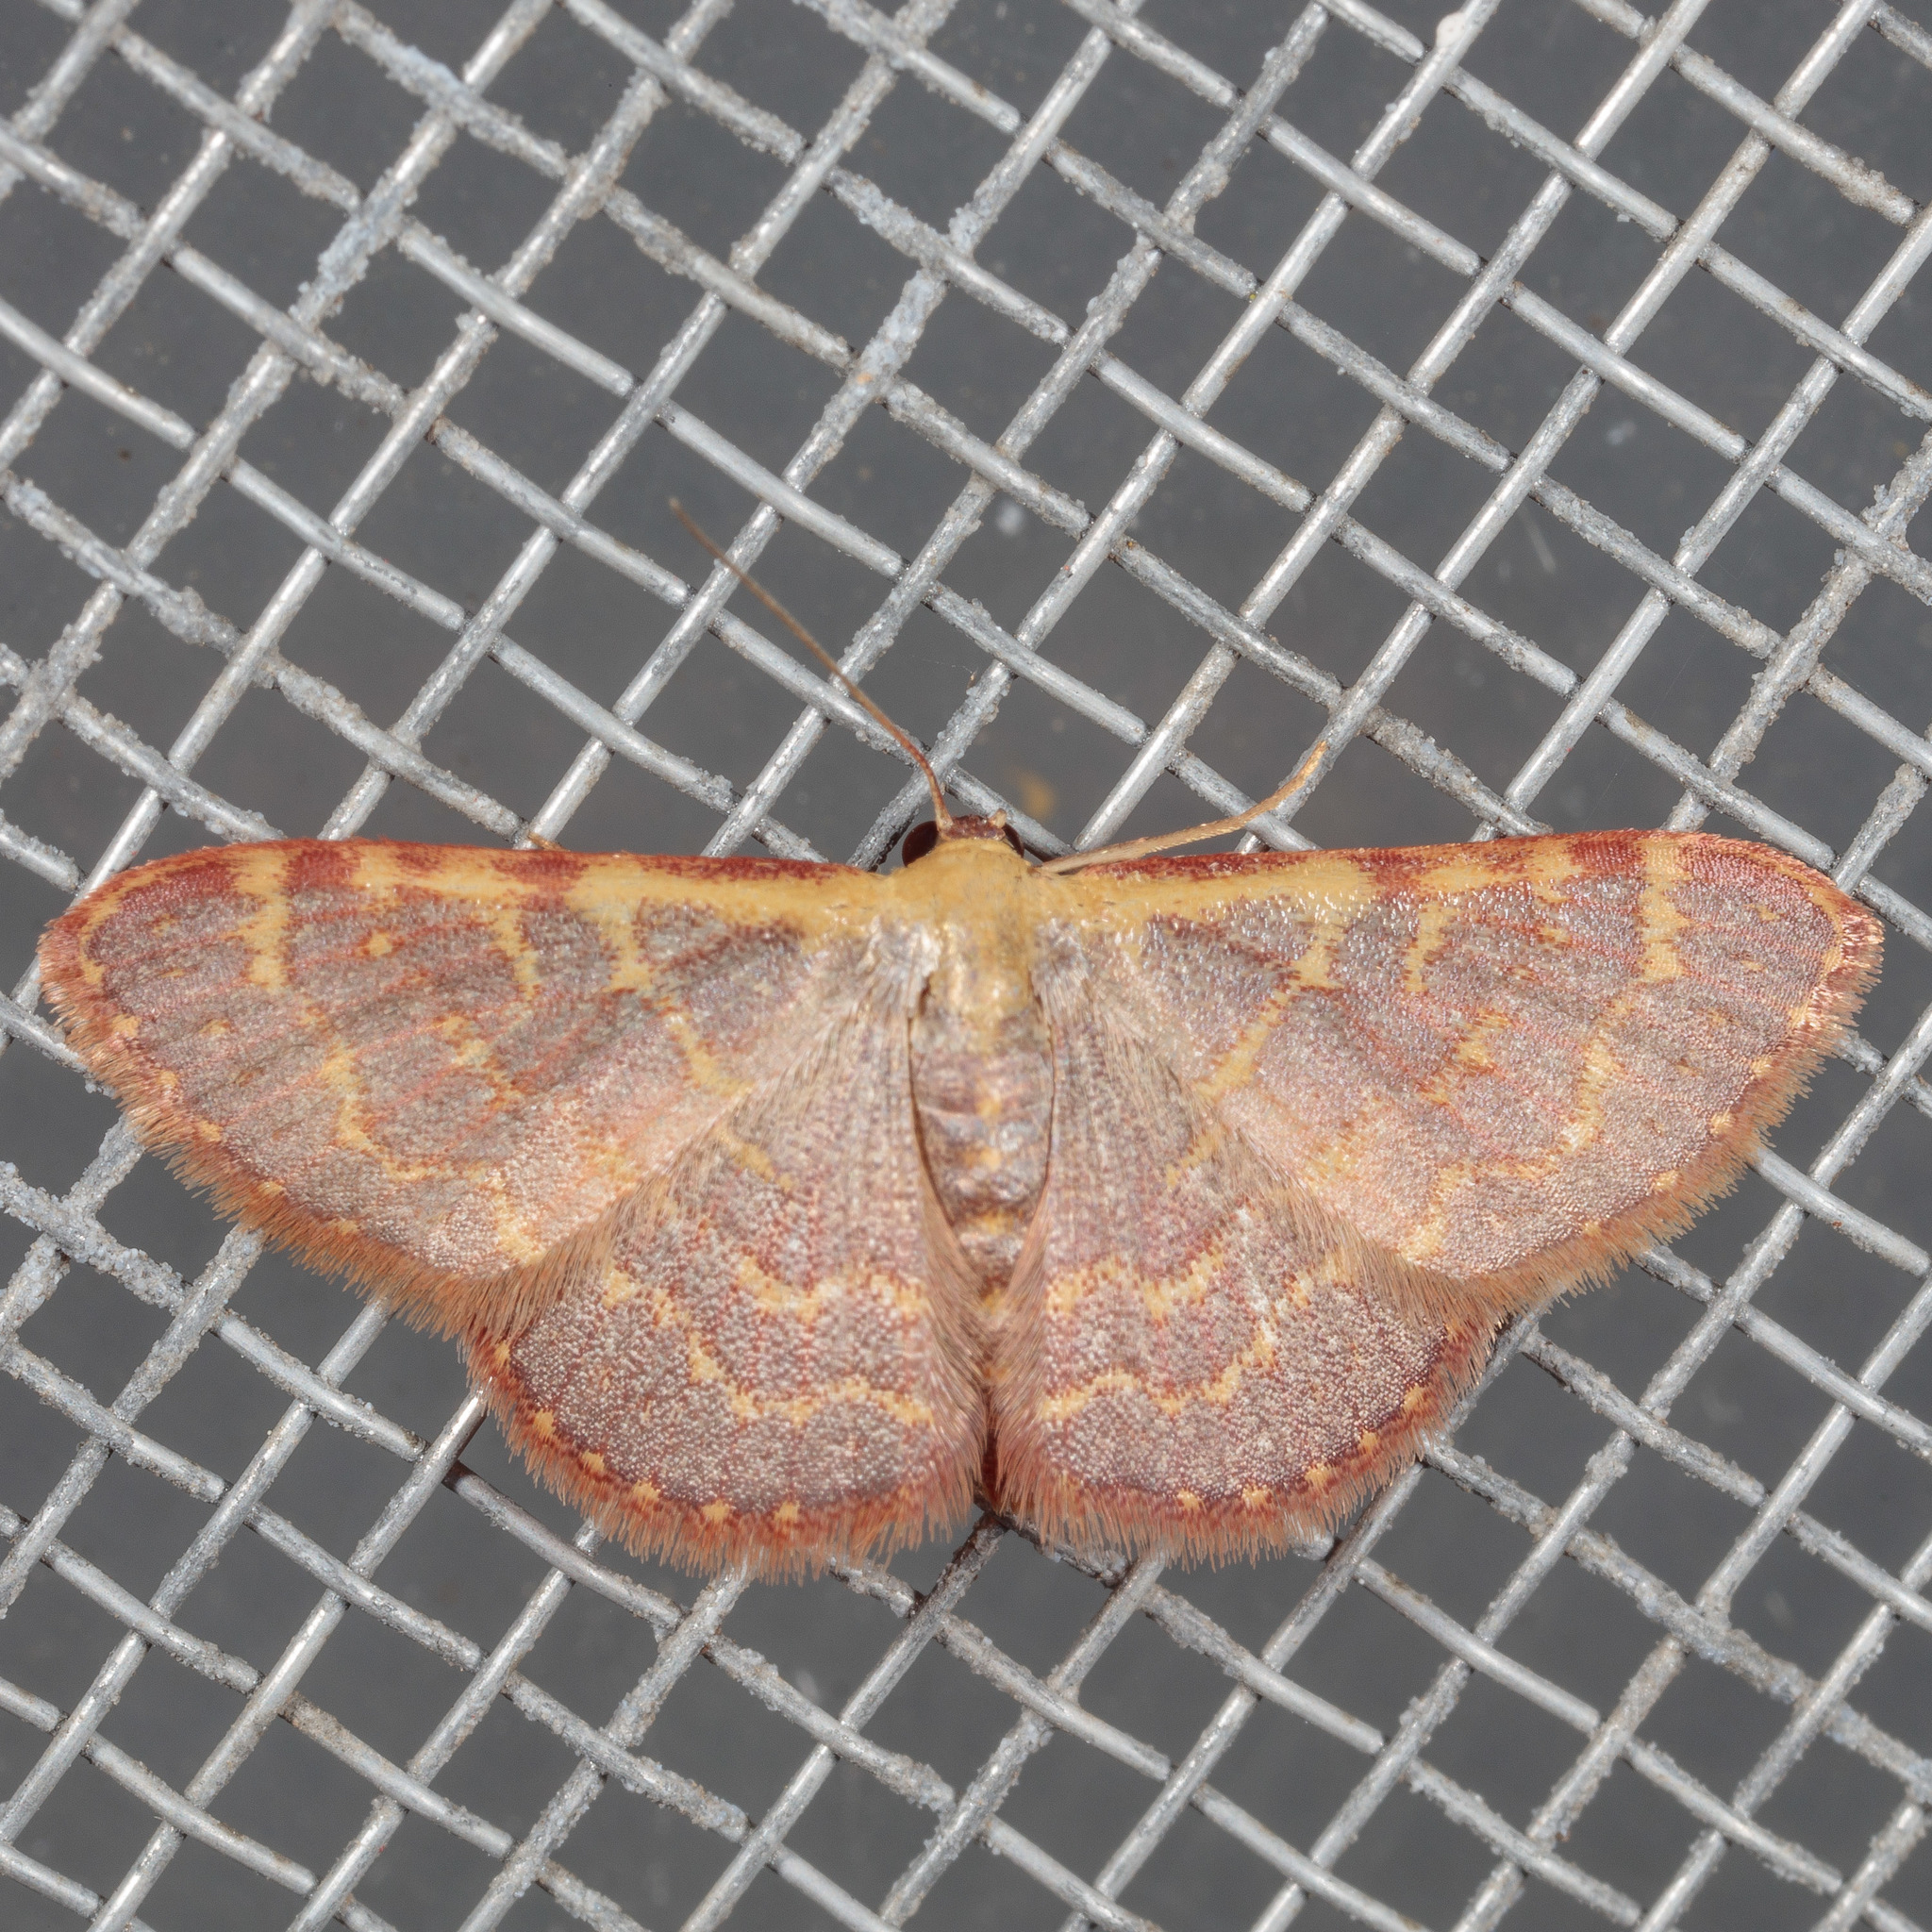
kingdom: Animalia
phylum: Arthropoda
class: Insecta
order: Lepidoptera
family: Geometridae
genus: Leptostales
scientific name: Leptostales pannaria
